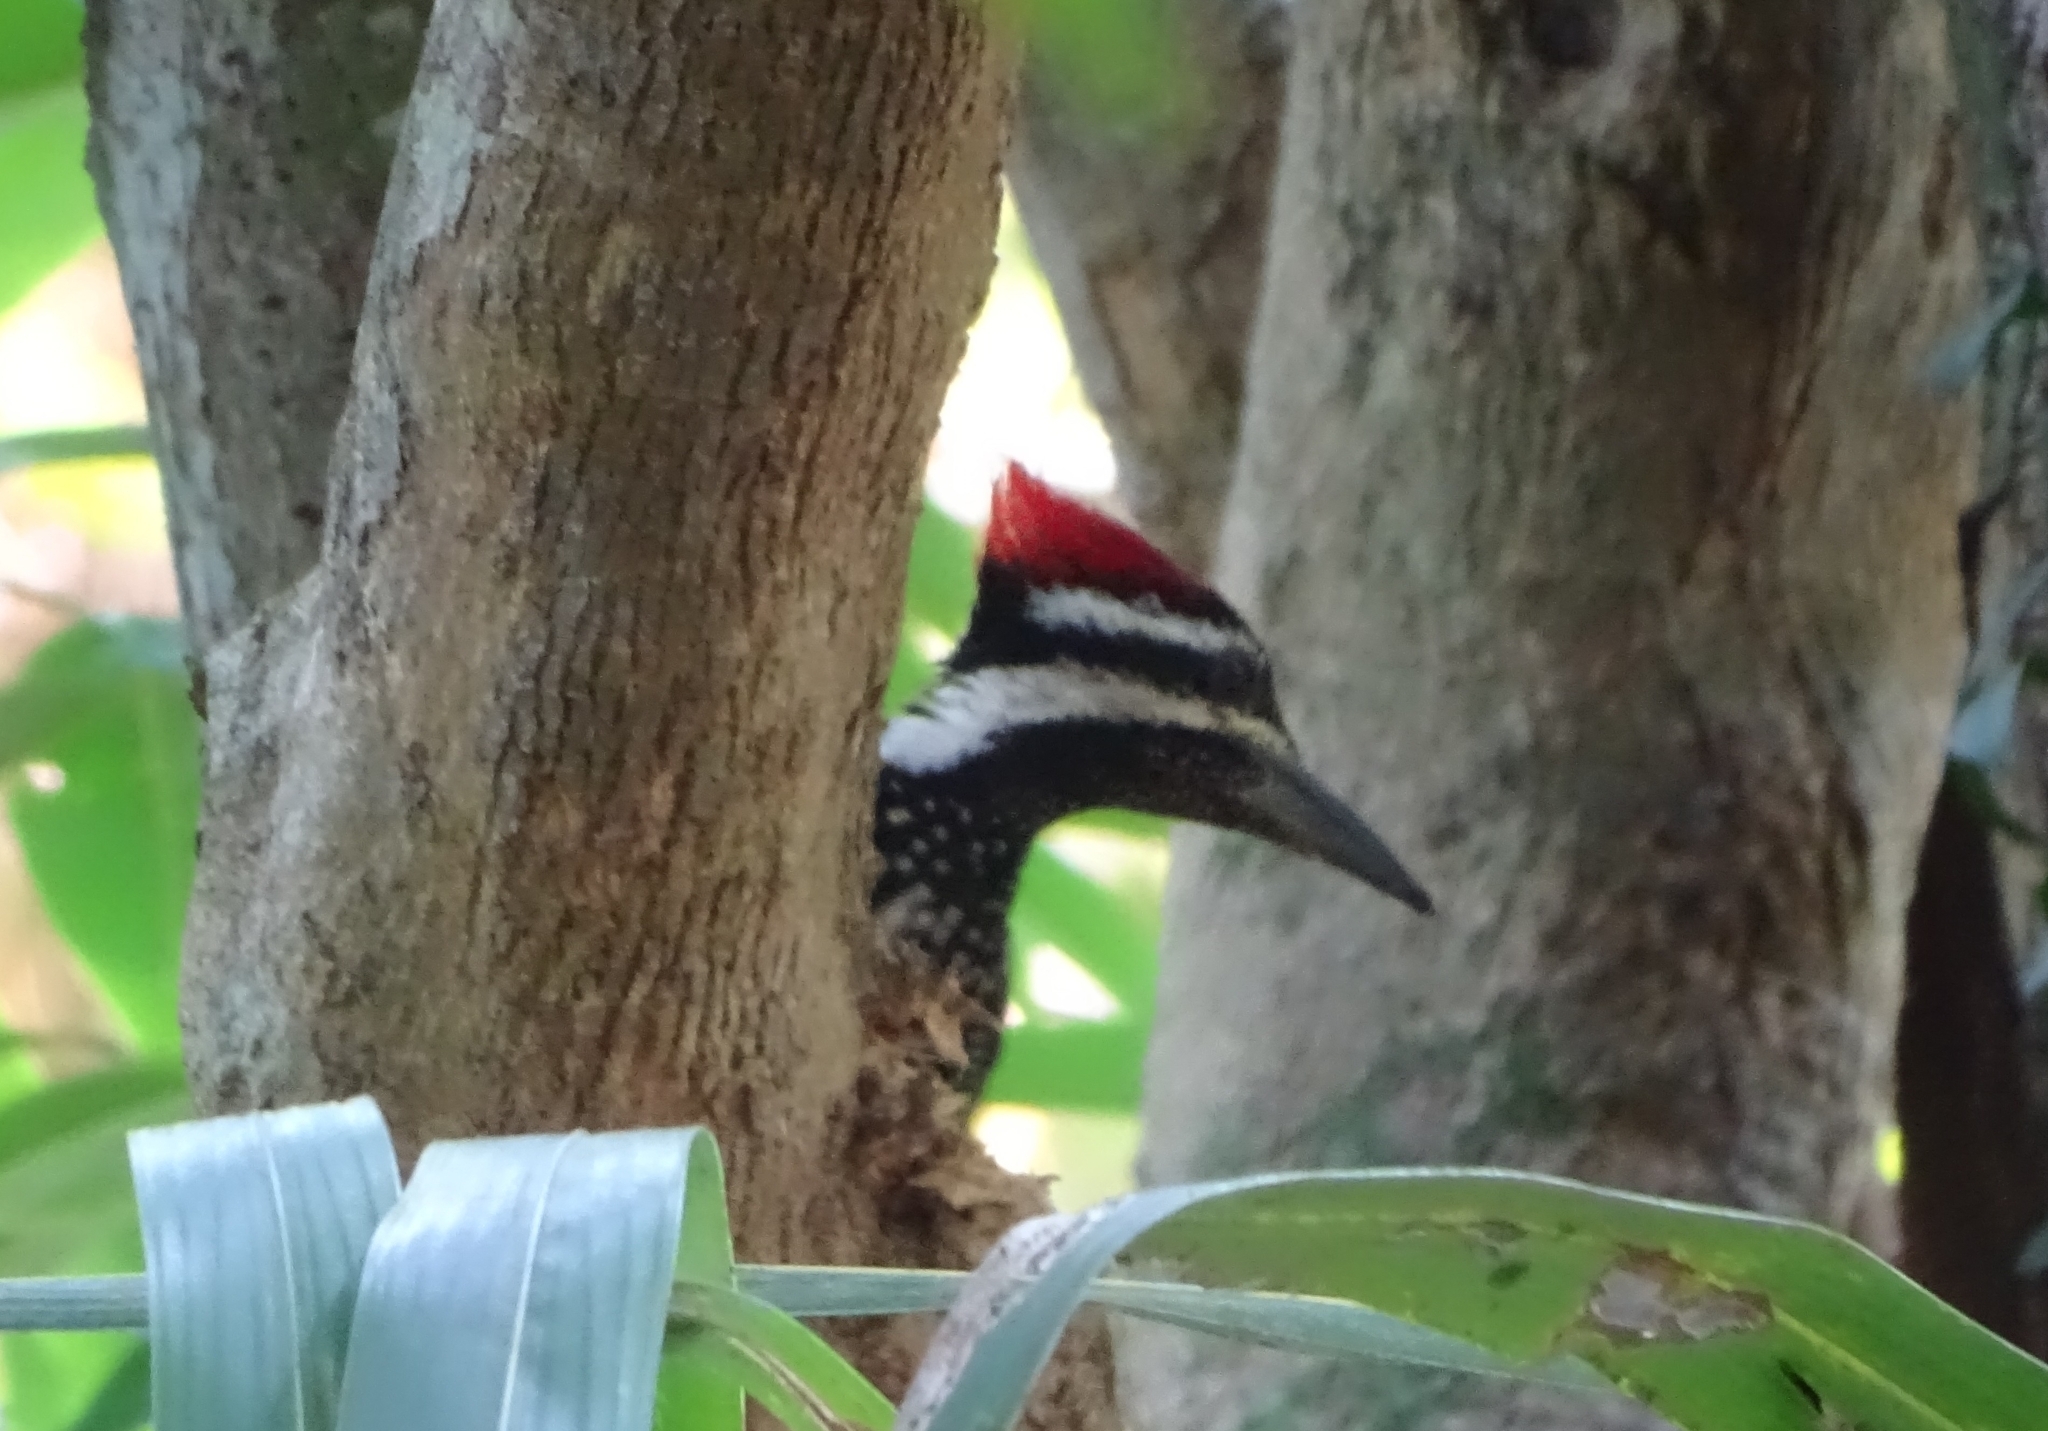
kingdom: Animalia
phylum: Chordata
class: Aves
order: Piciformes
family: Picidae
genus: Dinopium
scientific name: Dinopium benghalense
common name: Black-rumped flameback
